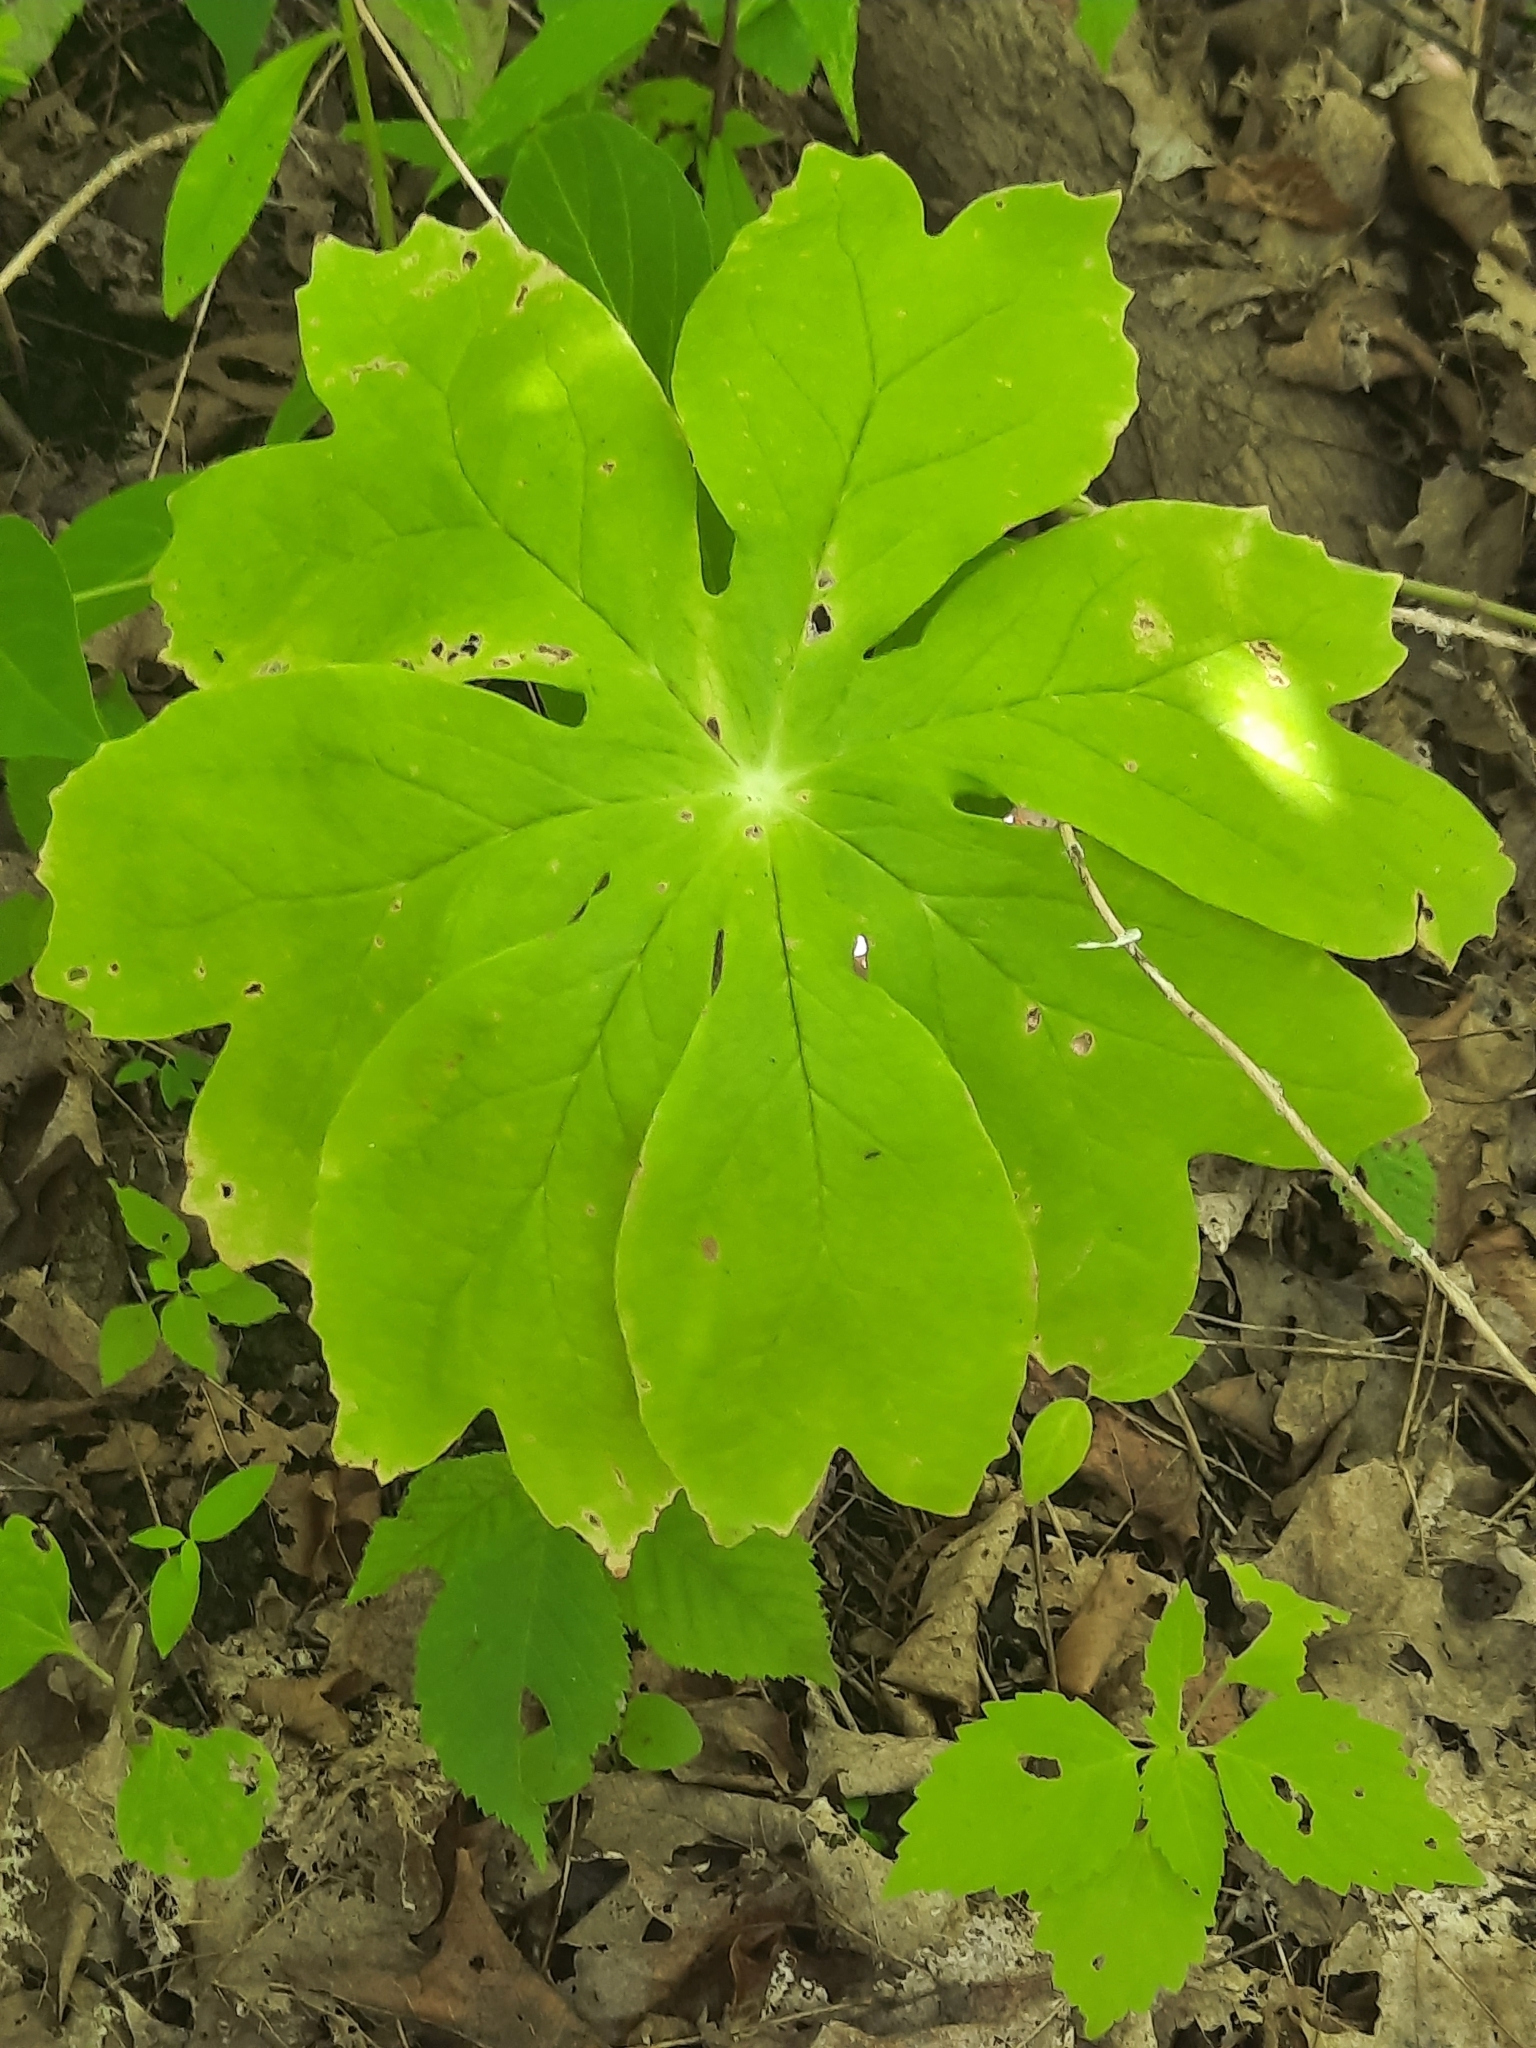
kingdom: Plantae
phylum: Tracheophyta
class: Magnoliopsida
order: Ranunculales
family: Berberidaceae
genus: Podophyllum
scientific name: Podophyllum peltatum
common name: Wild mandrake
